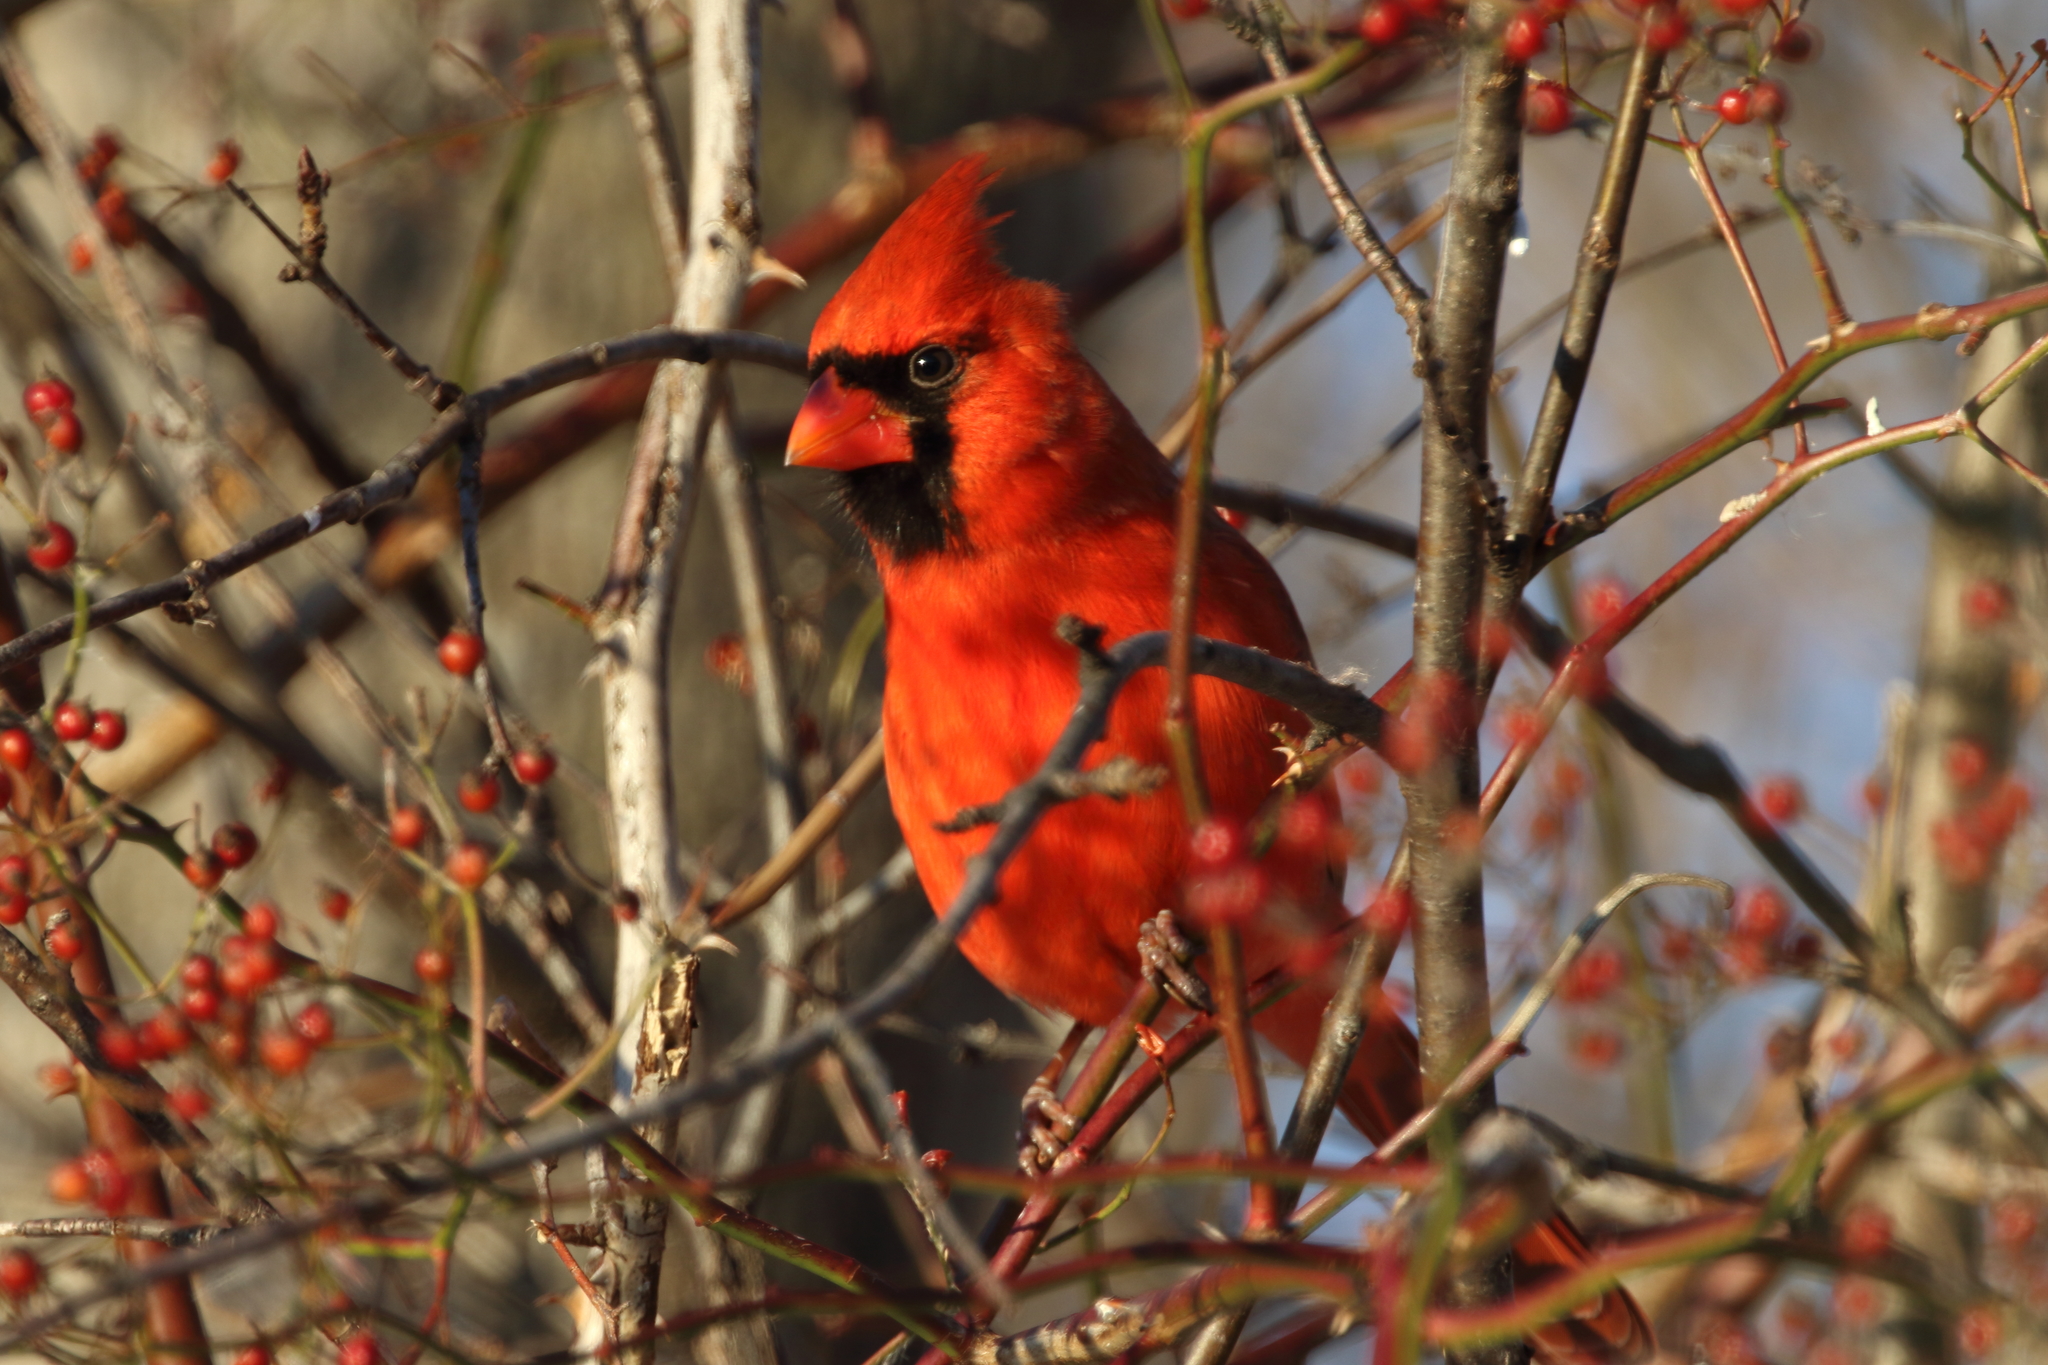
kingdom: Animalia
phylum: Chordata
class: Aves
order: Passeriformes
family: Cardinalidae
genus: Cardinalis
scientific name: Cardinalis cardinalis
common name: Northern cardinal
